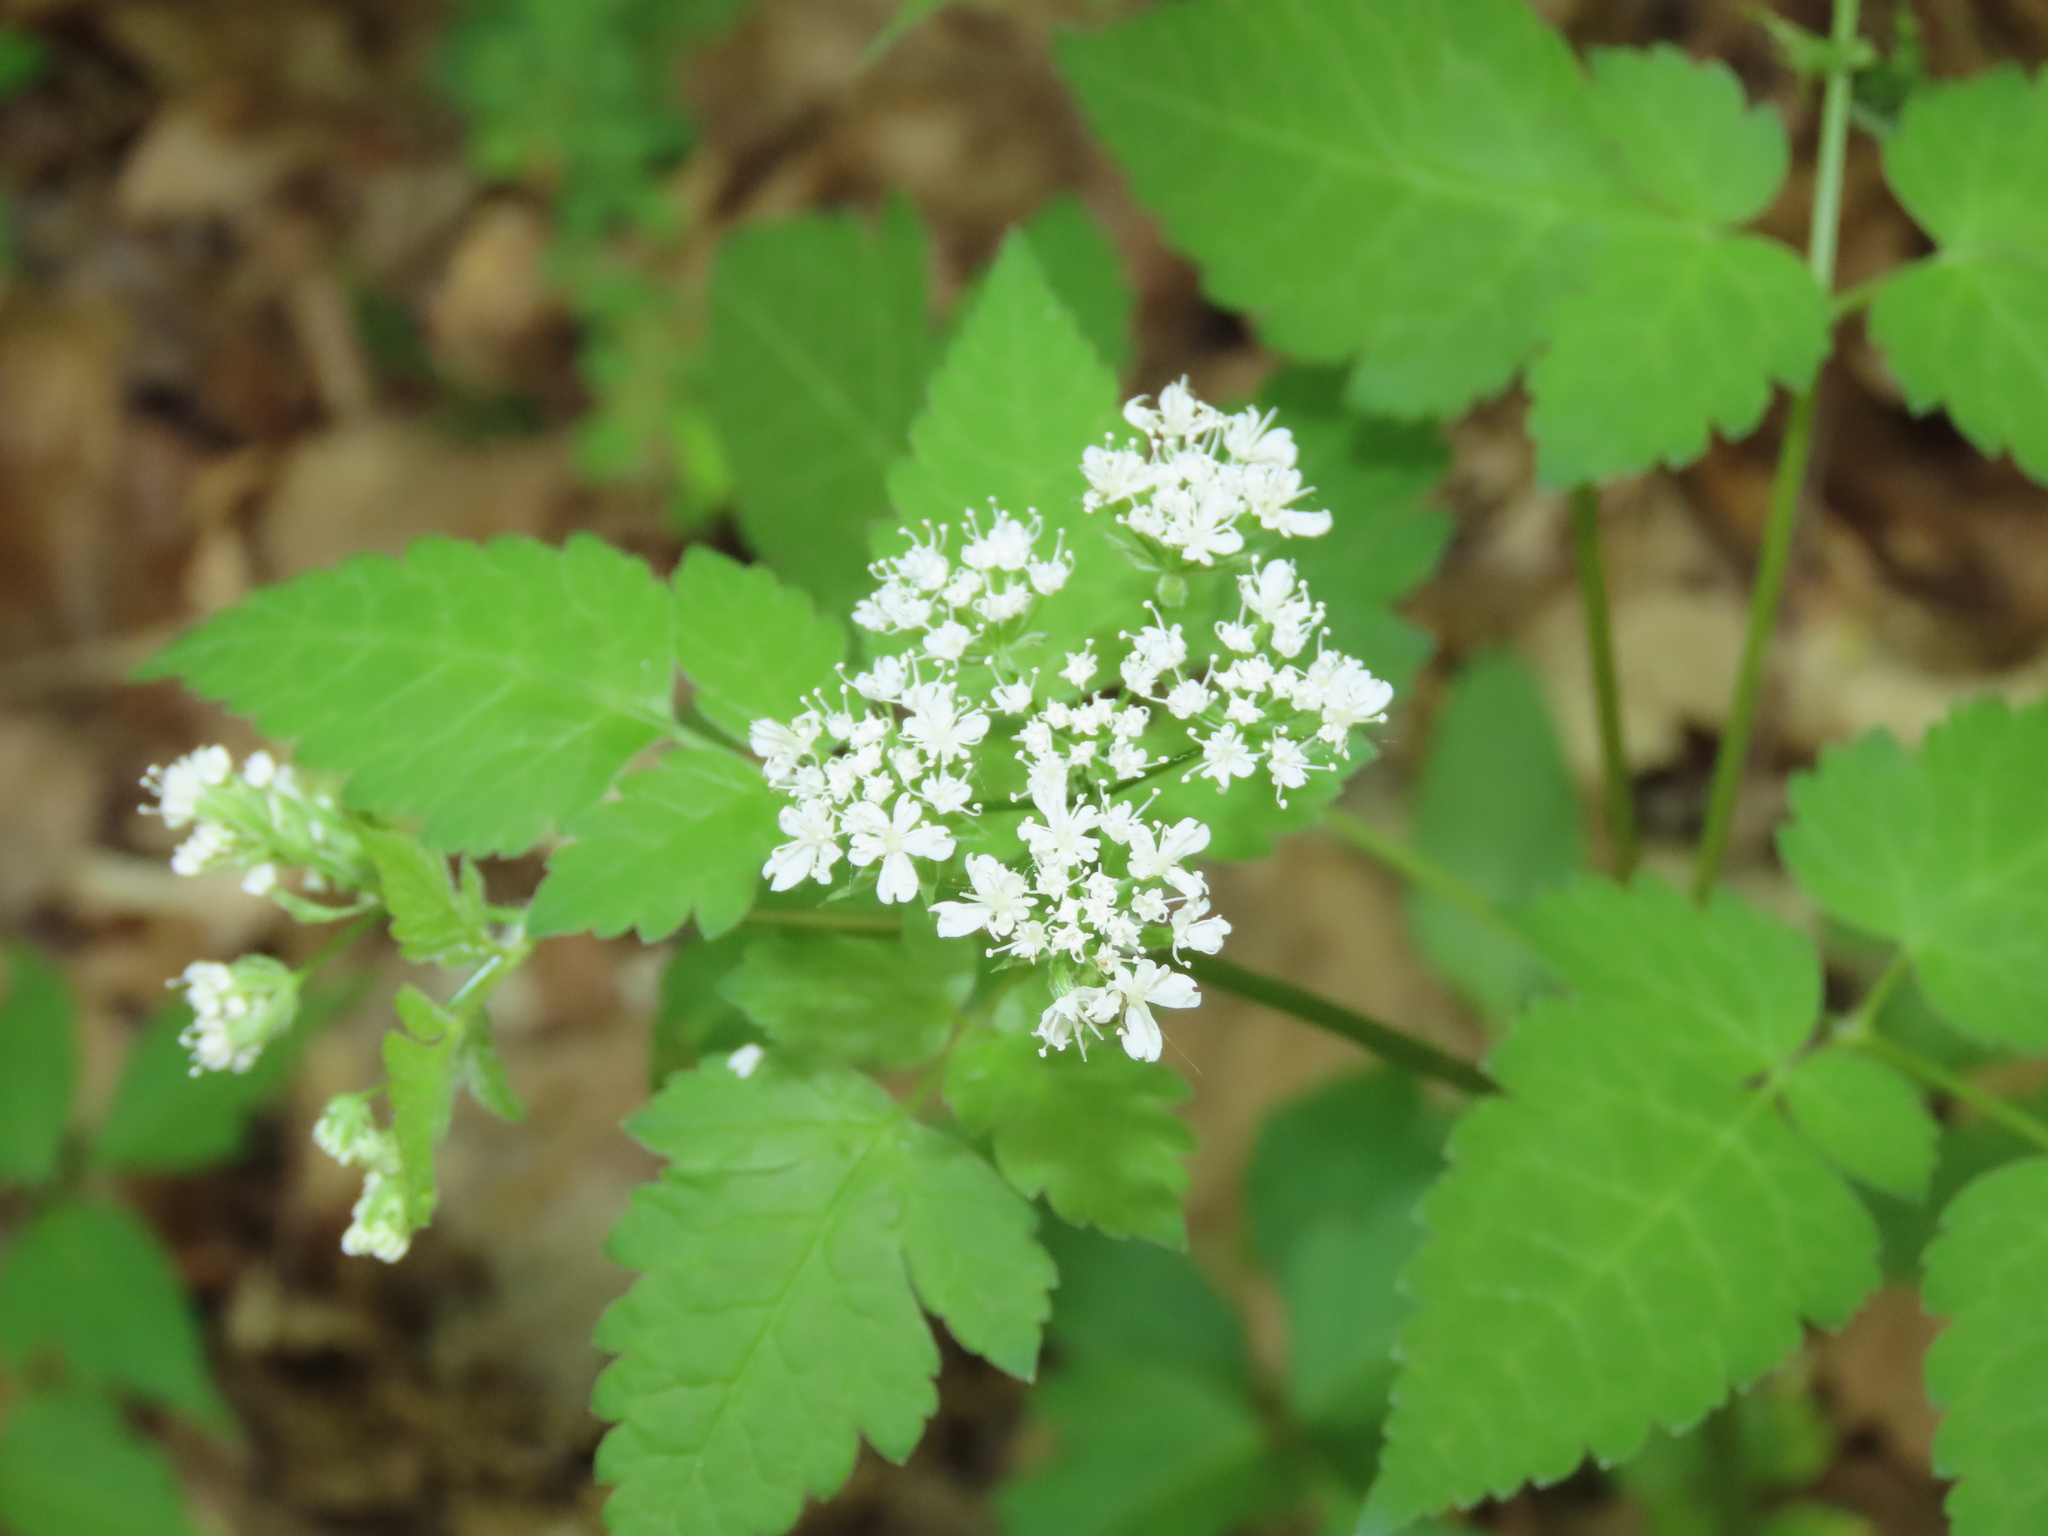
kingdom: Plantae
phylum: Tracheophyta
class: Magnoliopsida
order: Apiales
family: Apiaceae
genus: Osmorhiza
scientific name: Osmorhiza longistylis
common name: Smooth sweet cicely
